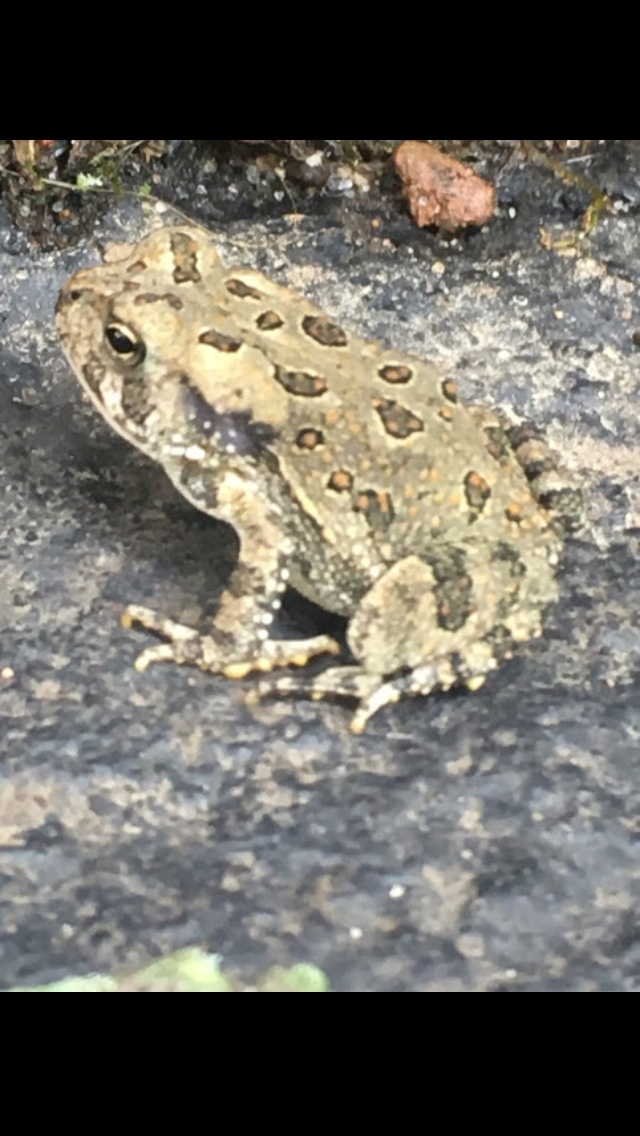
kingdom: Animalia
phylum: Chordata
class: Amphibia
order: Anura
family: Bufonidae
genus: Anaxyrus
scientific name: Anaxyrus fowleri
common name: Fowler's toad
